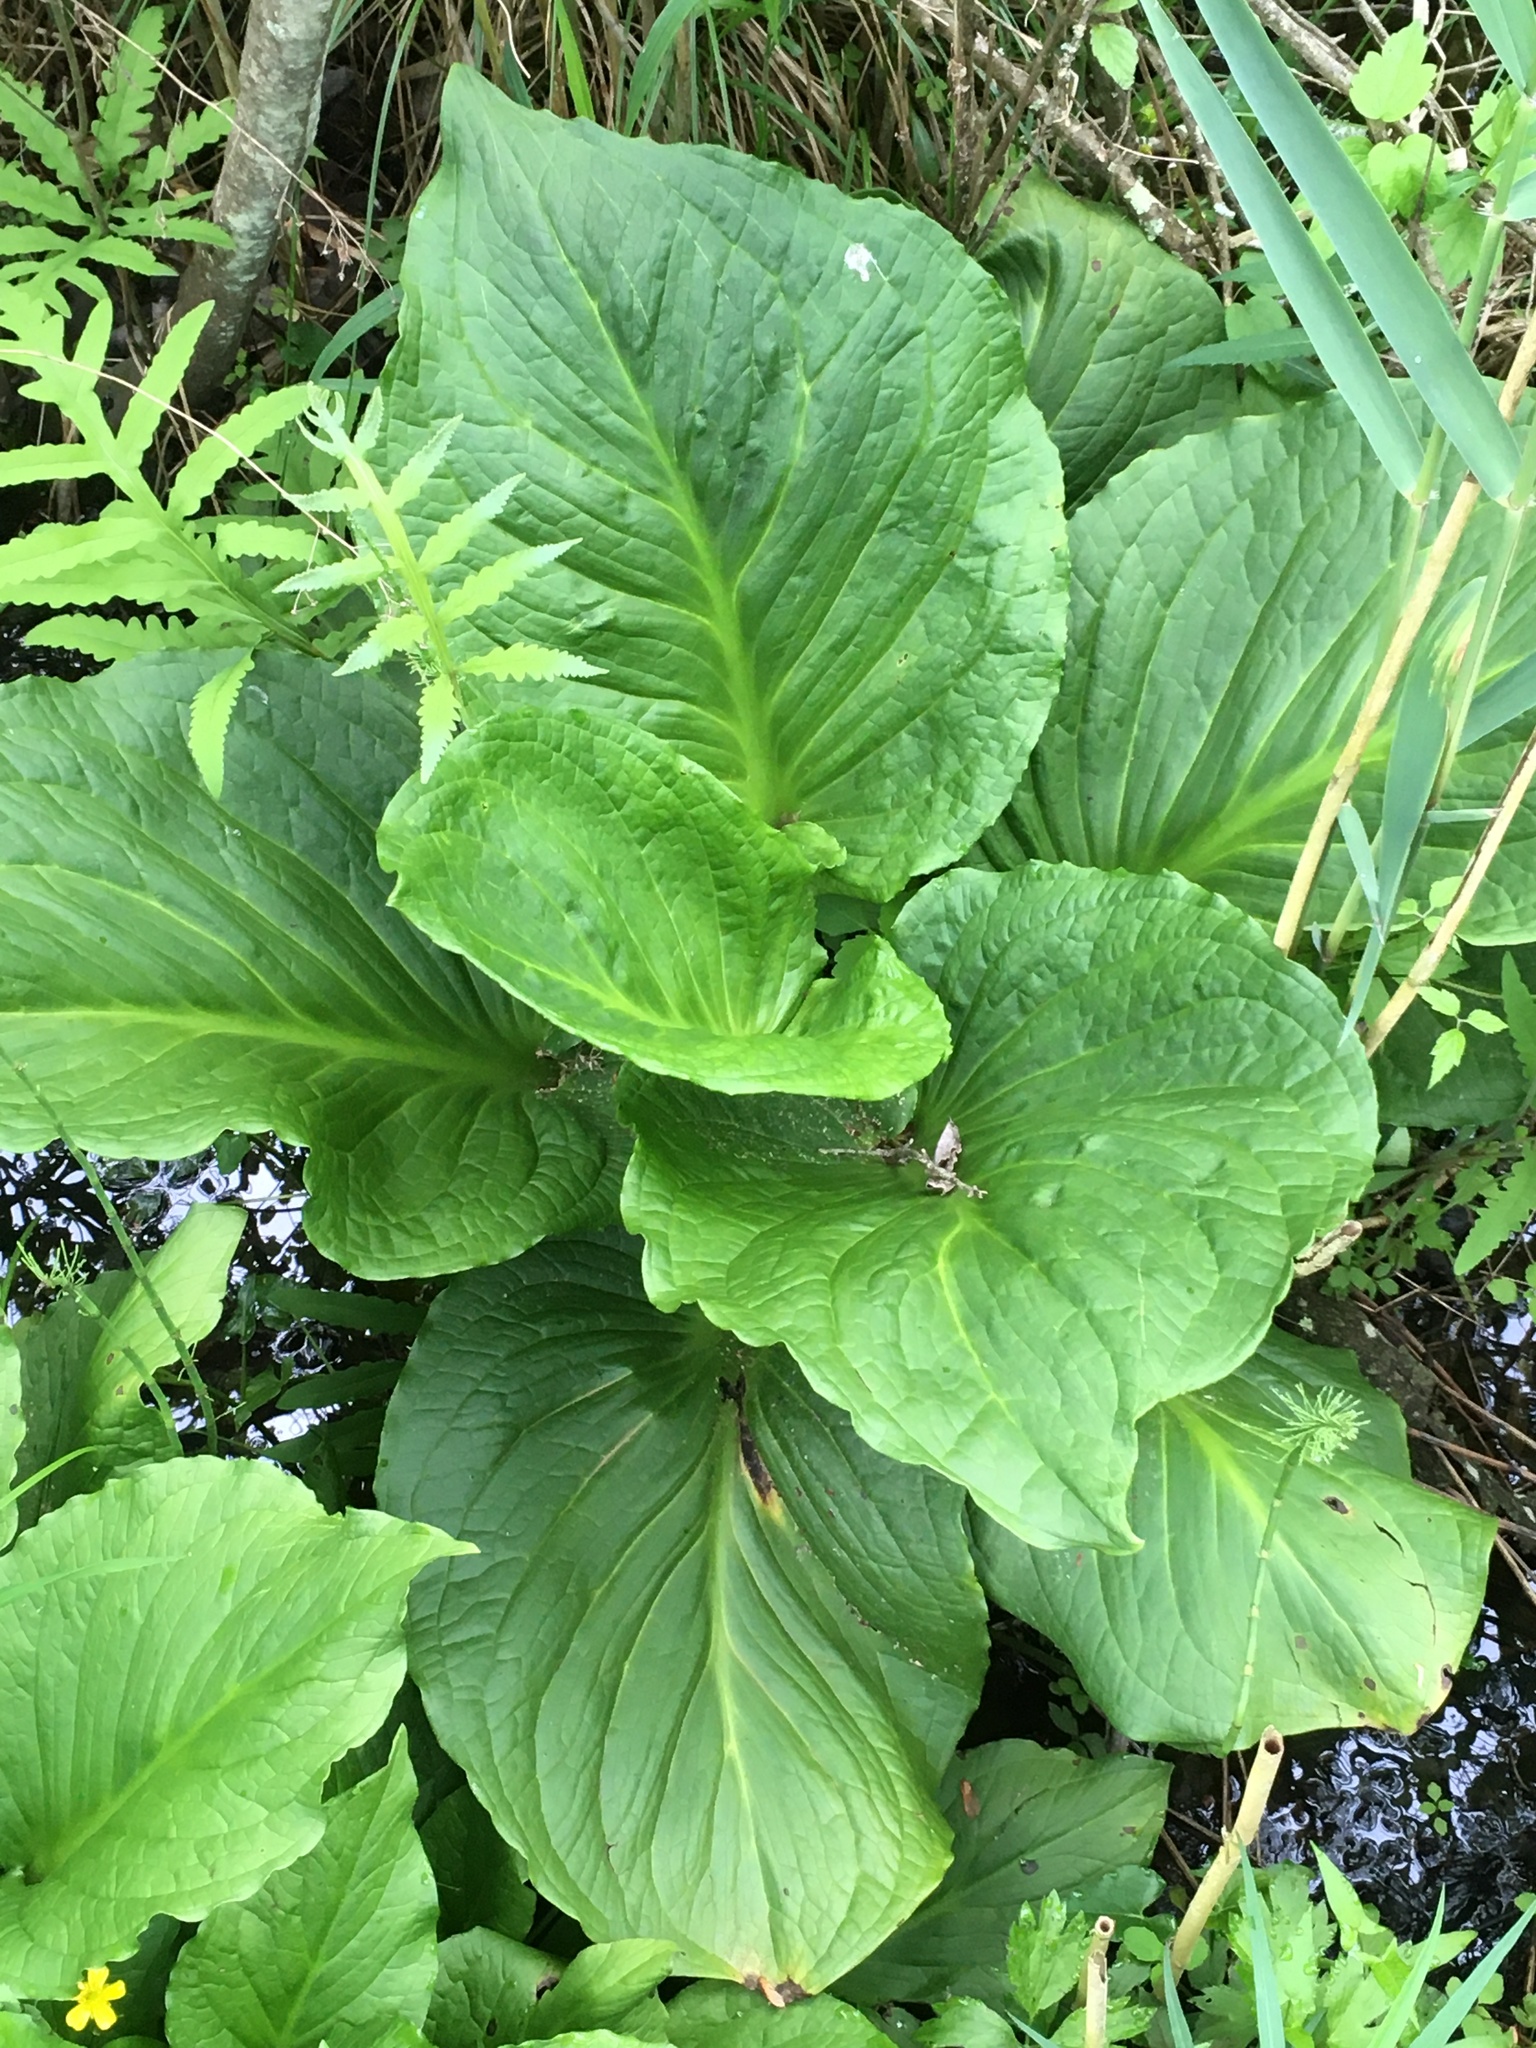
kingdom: Plantae
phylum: Tracheophyta
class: Liliopsida
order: Alismatales
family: Araceae
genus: Symplocarpus
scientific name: Symplocarpus foetidus
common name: Eastern skunk cabbage
